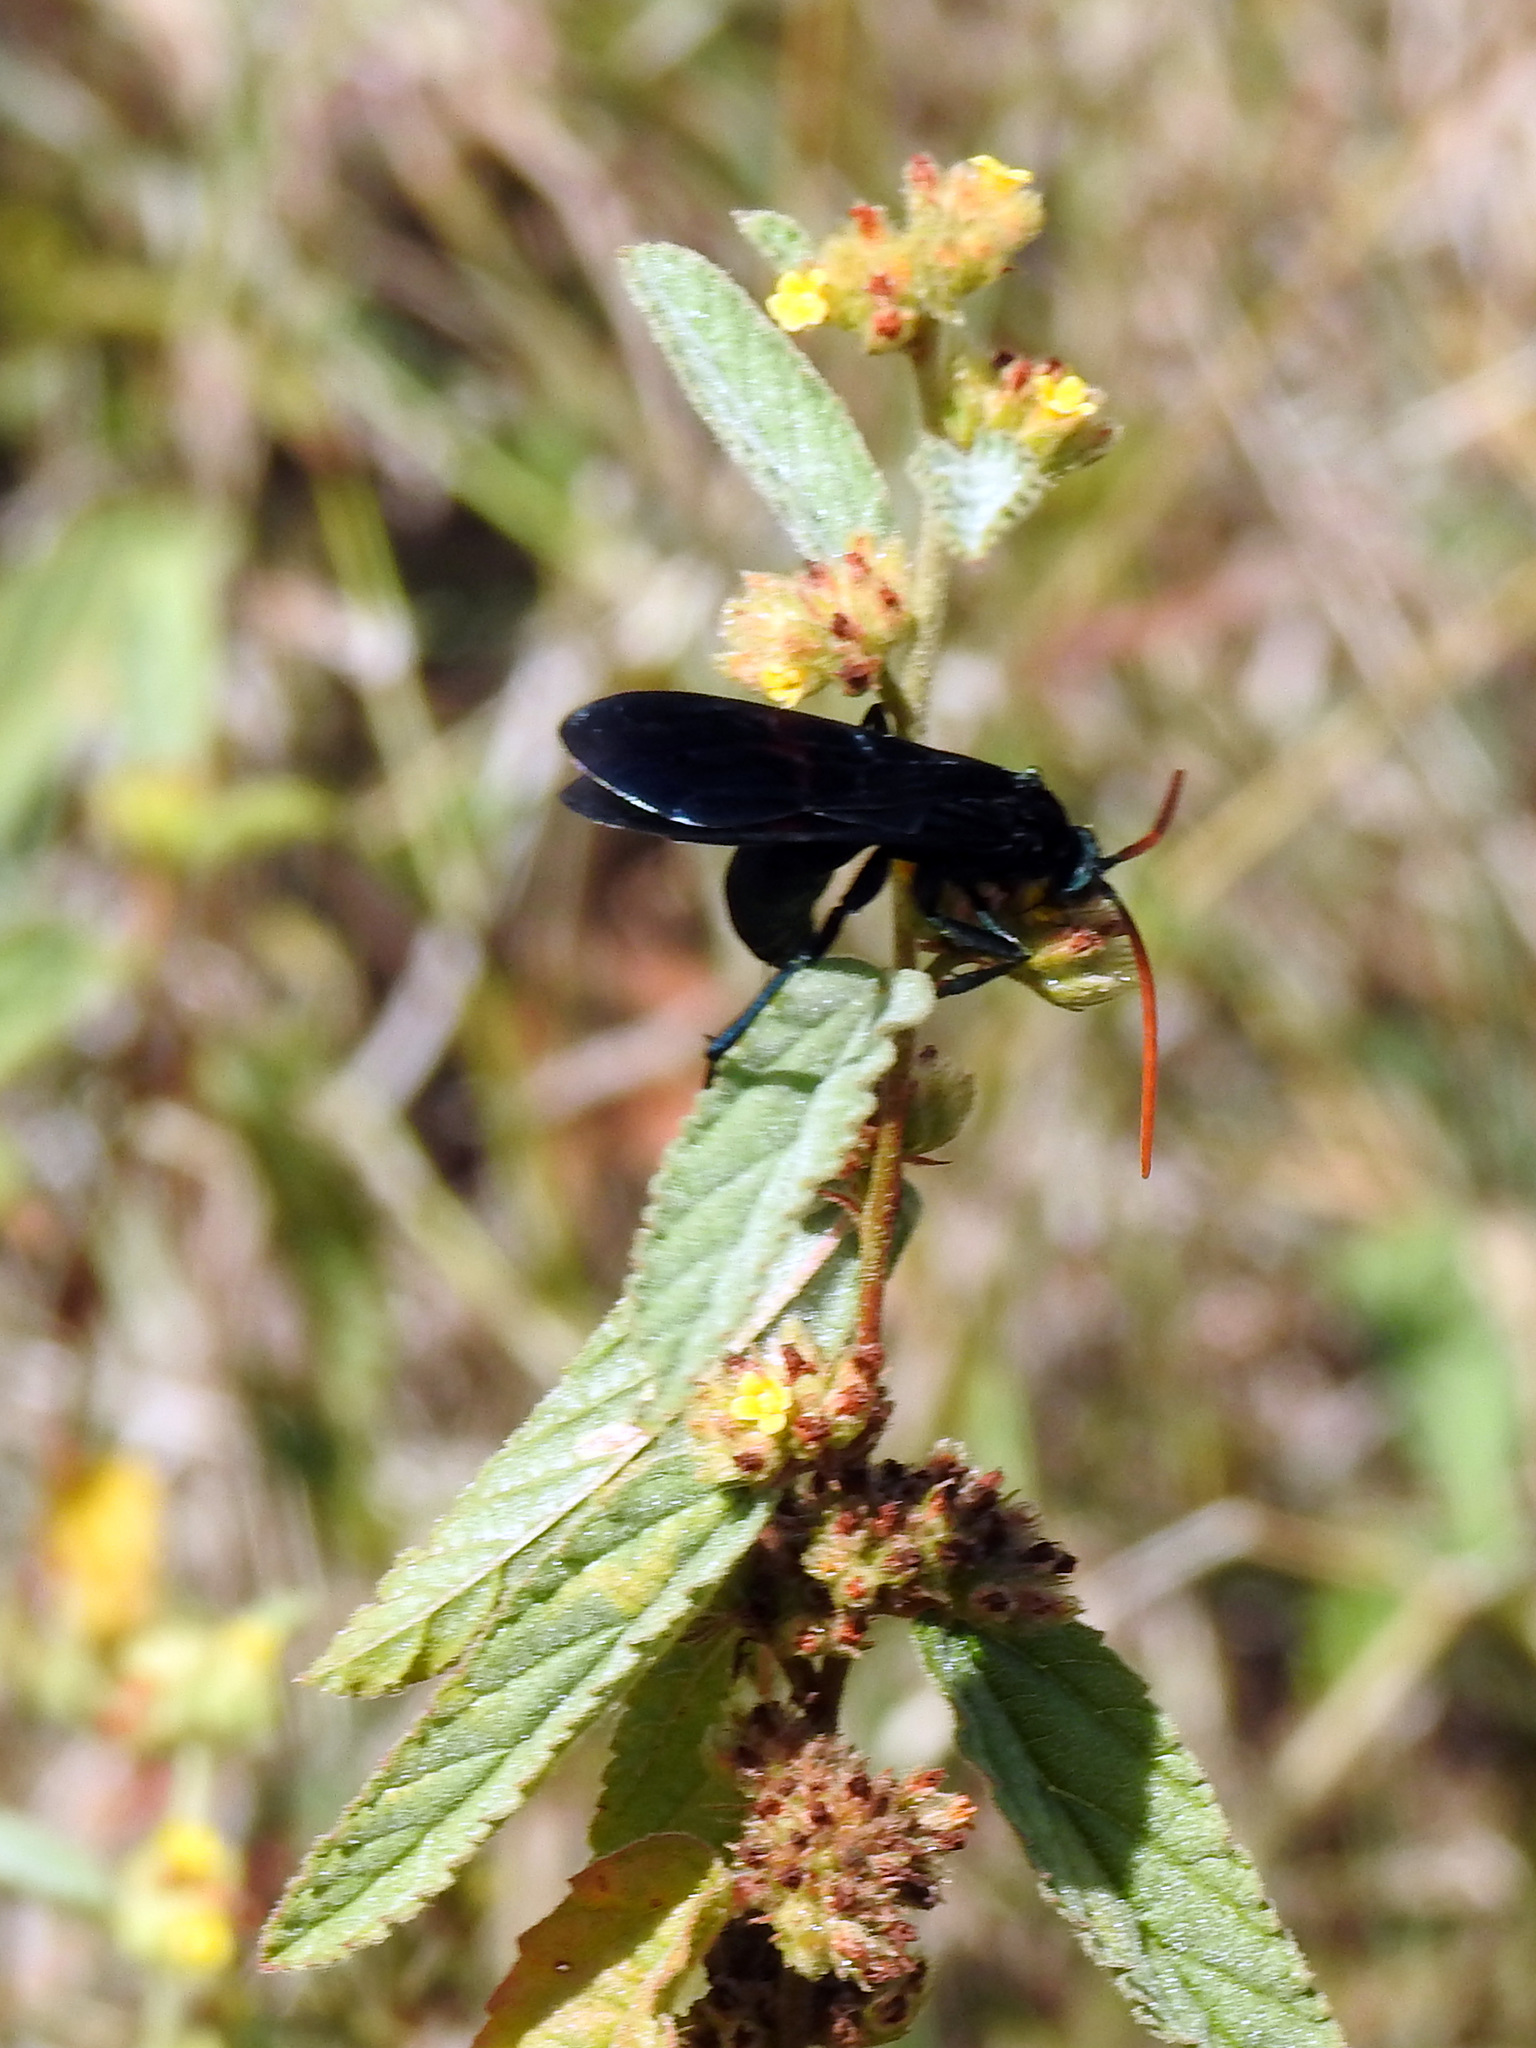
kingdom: Animalia
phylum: Arthropoda
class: Insecta
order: Hymenoptera
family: Pompilidae
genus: Pepsis
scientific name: Pepsis ruficornis
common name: Orange-horned tarantula hawk
